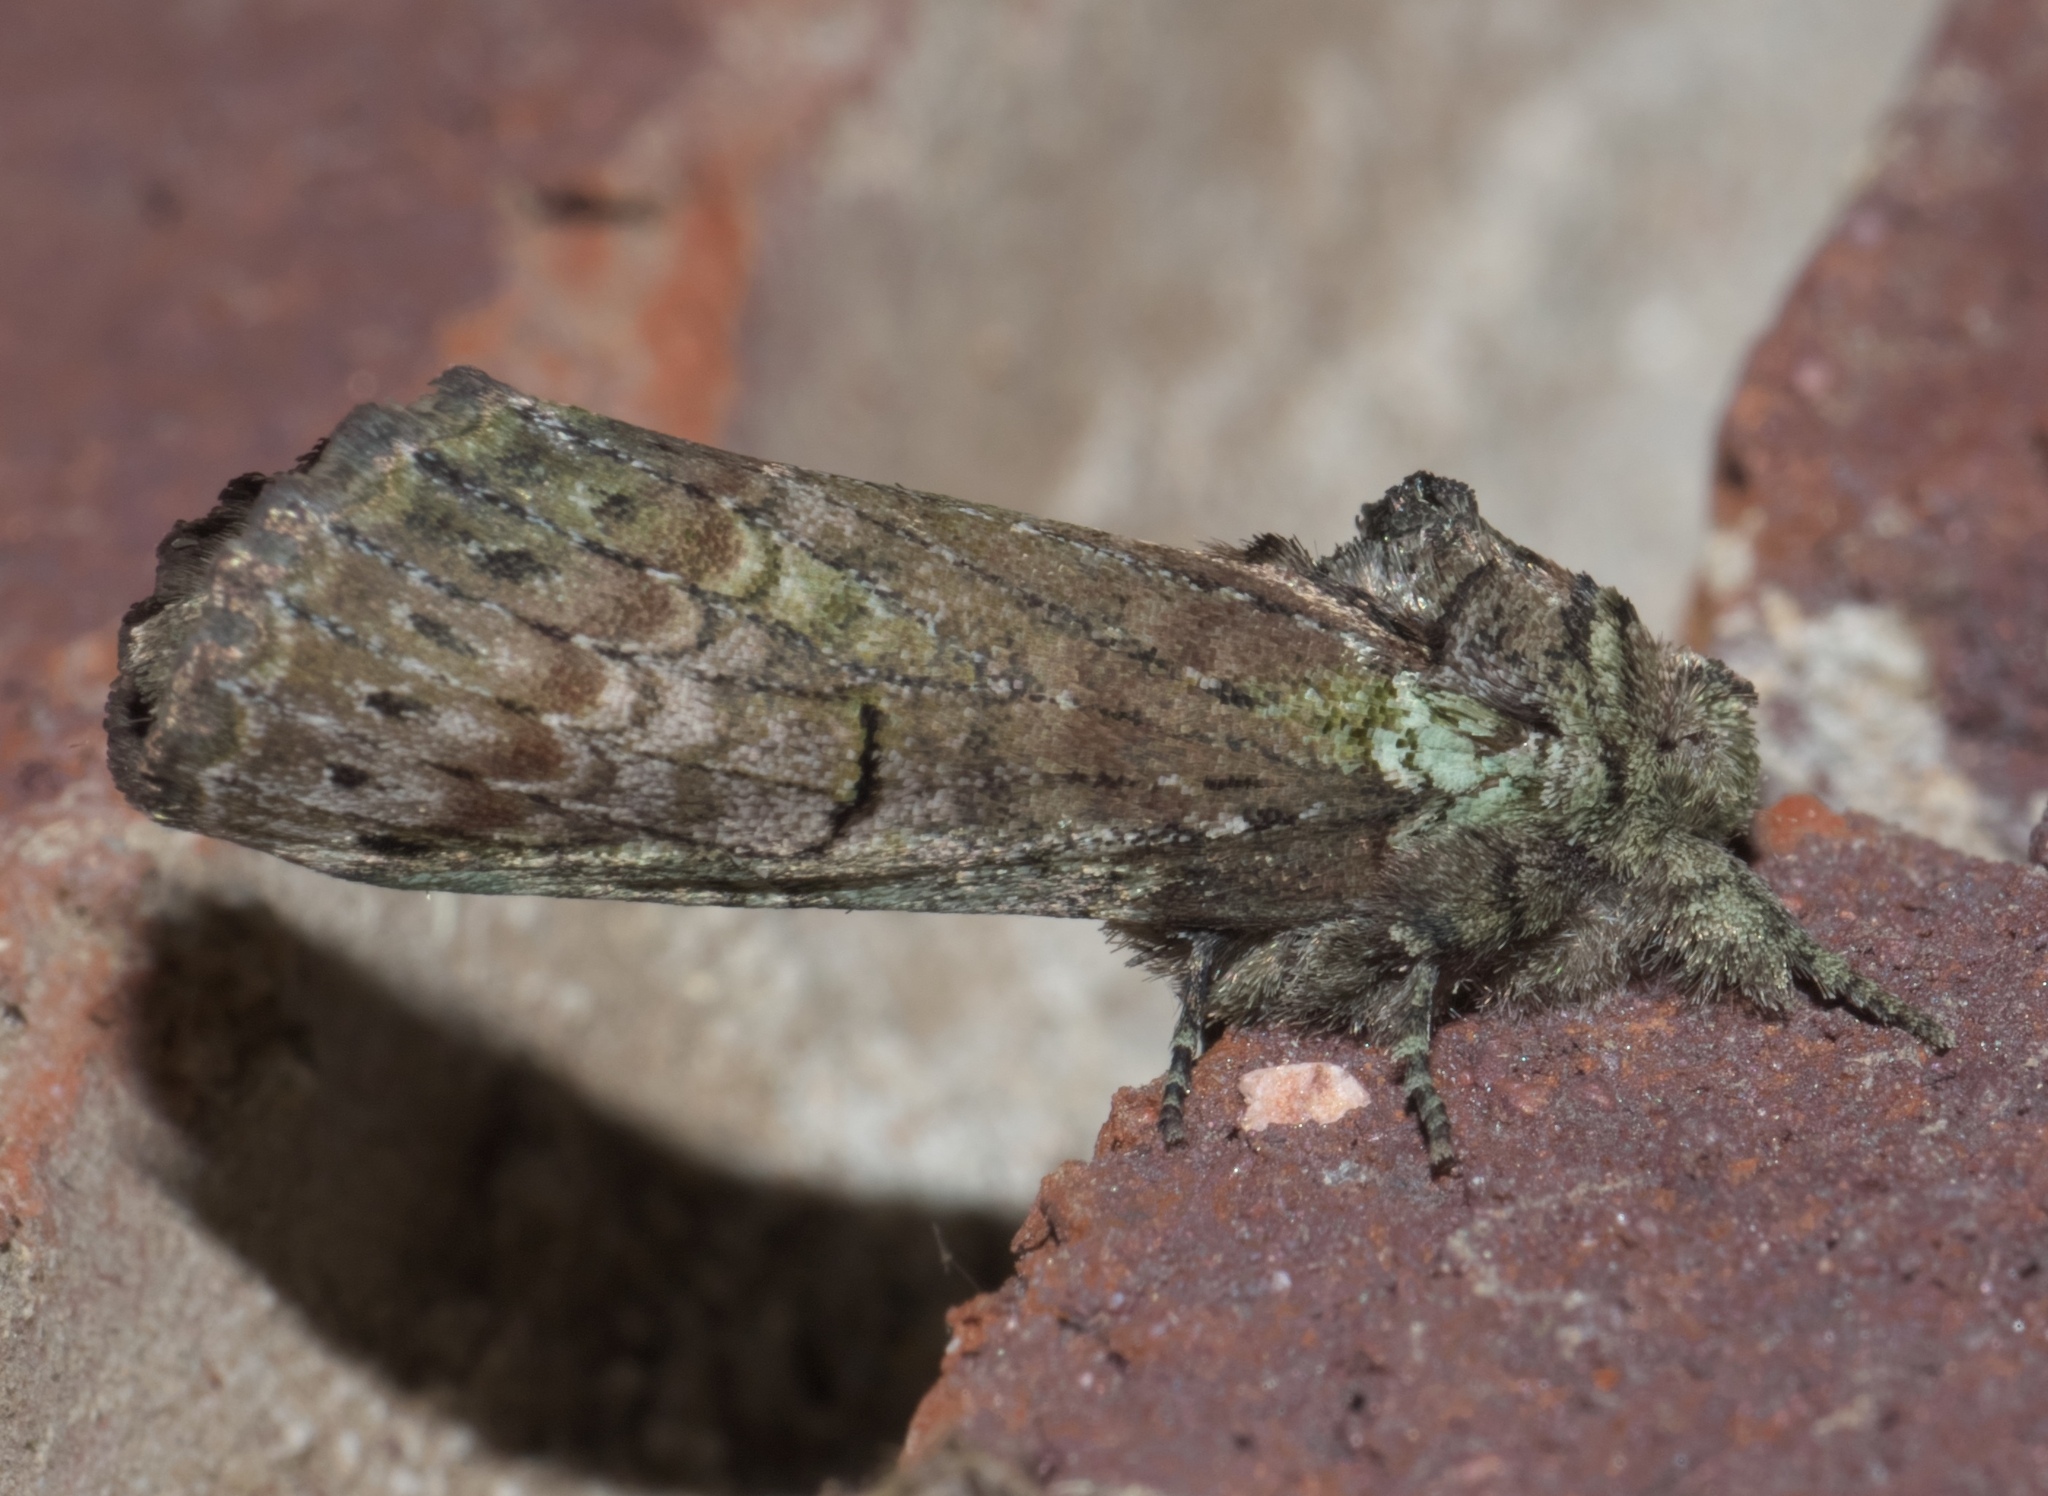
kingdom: Animalia
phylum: Arthropoda
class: Insecta
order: Lepidoptera
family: Notodontidae
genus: Schizura
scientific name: Schizura
